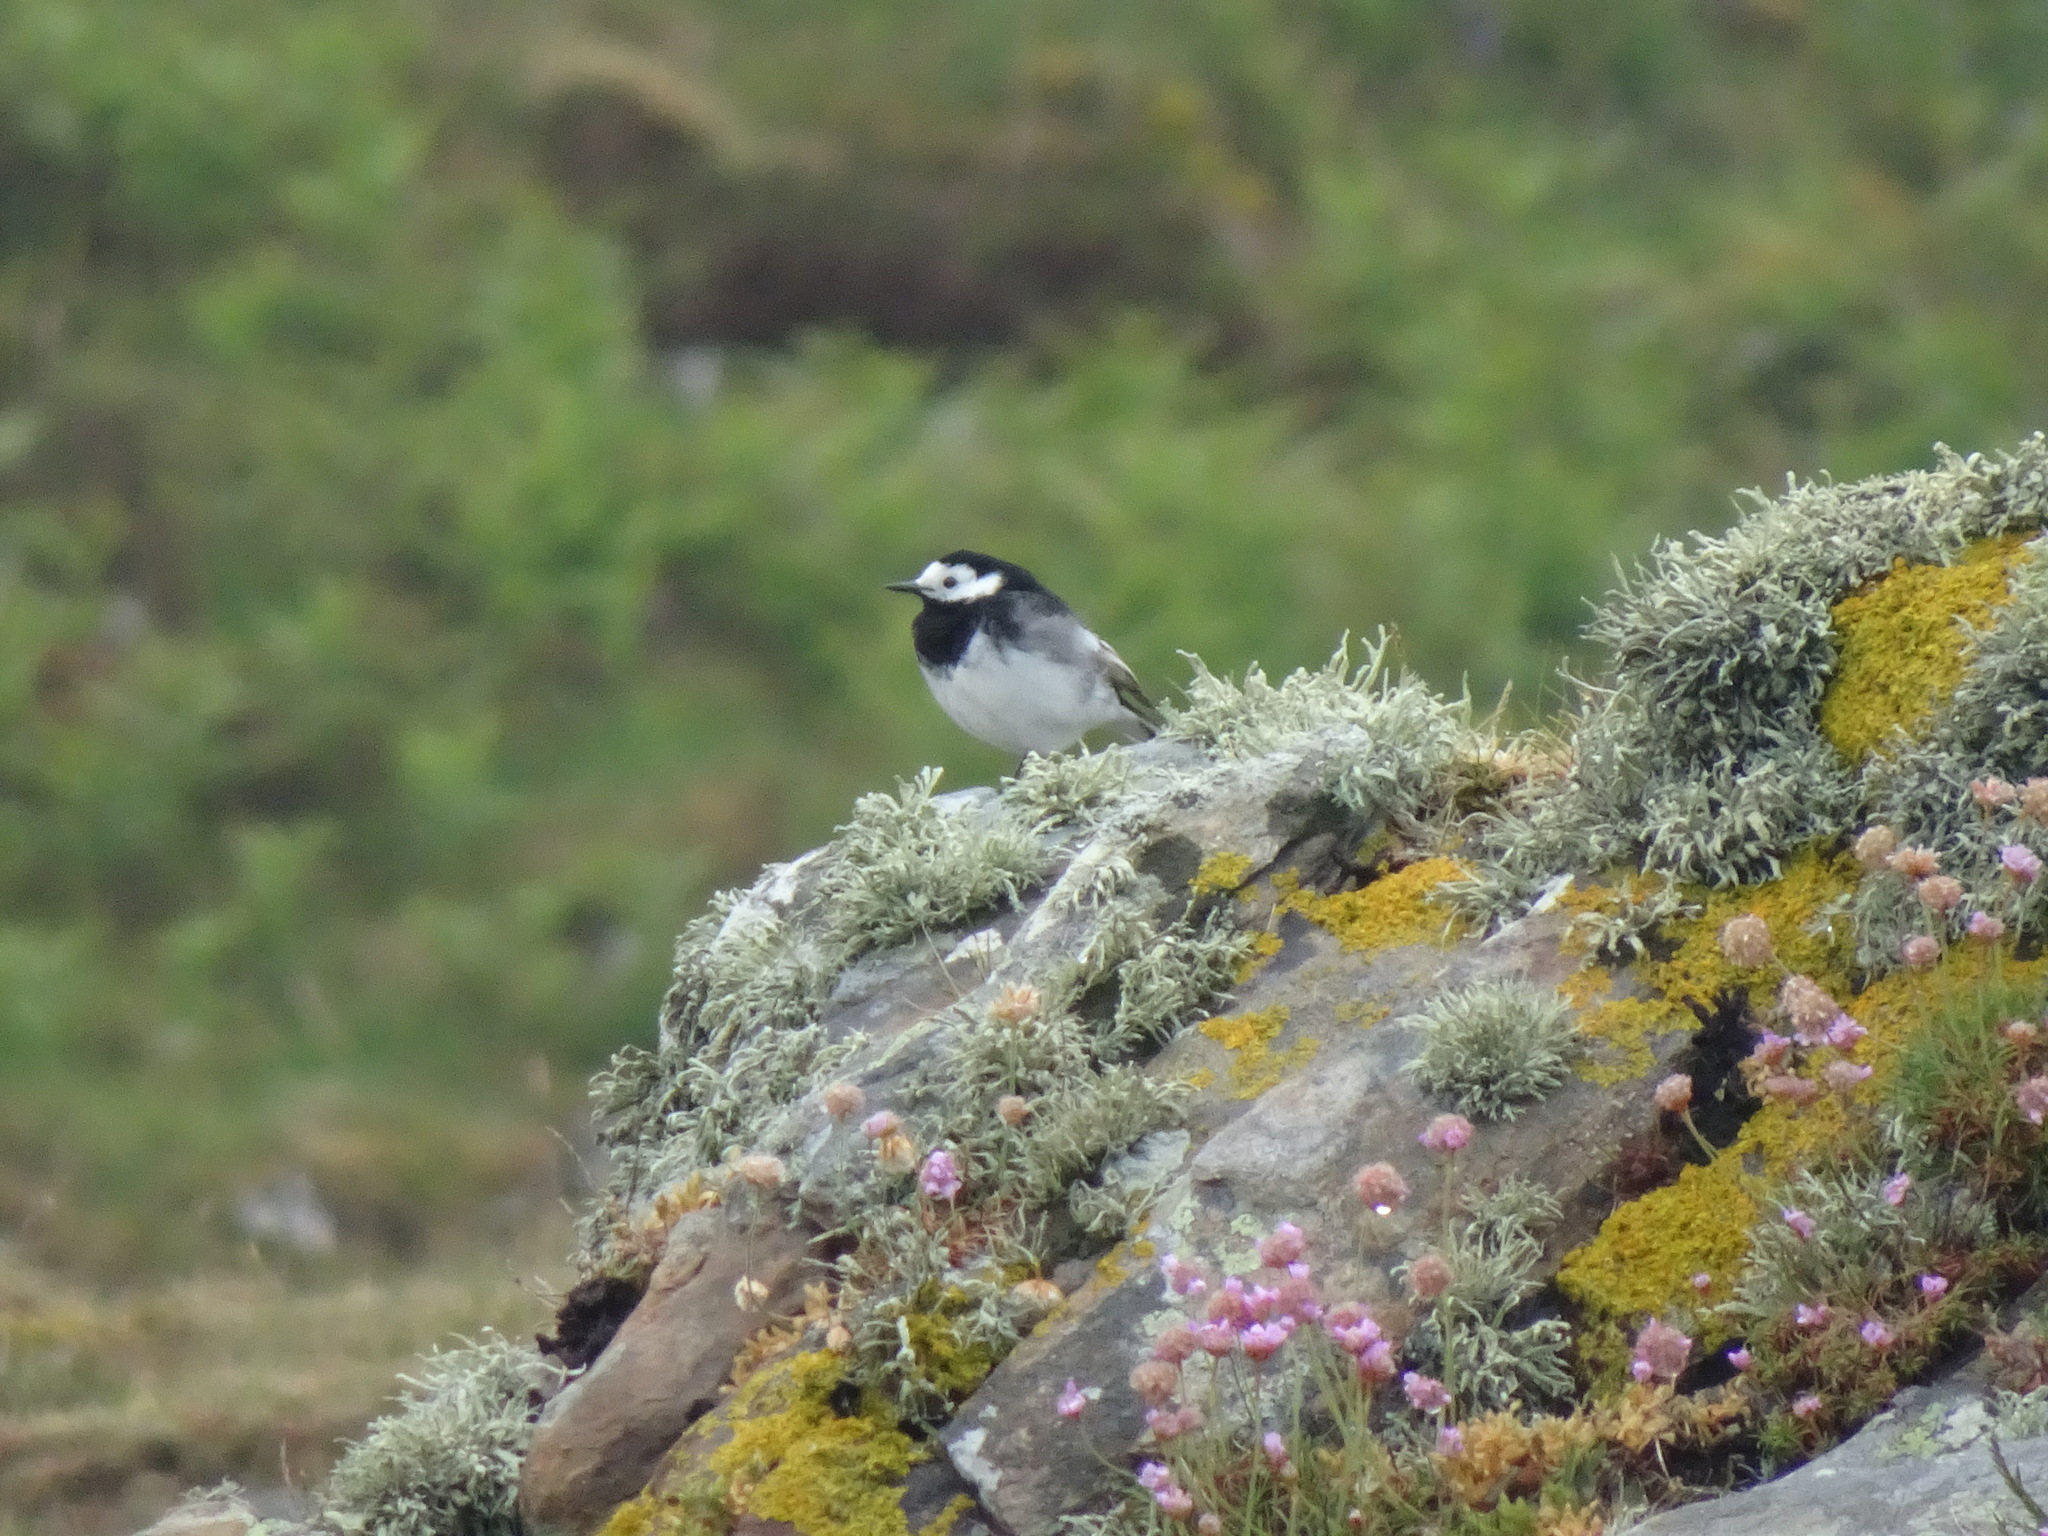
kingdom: Animalia
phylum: Chordata
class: Aves
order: Passeriformes
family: Motacillidae
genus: Motacilla
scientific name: Motacilla alba
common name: White wagtail
